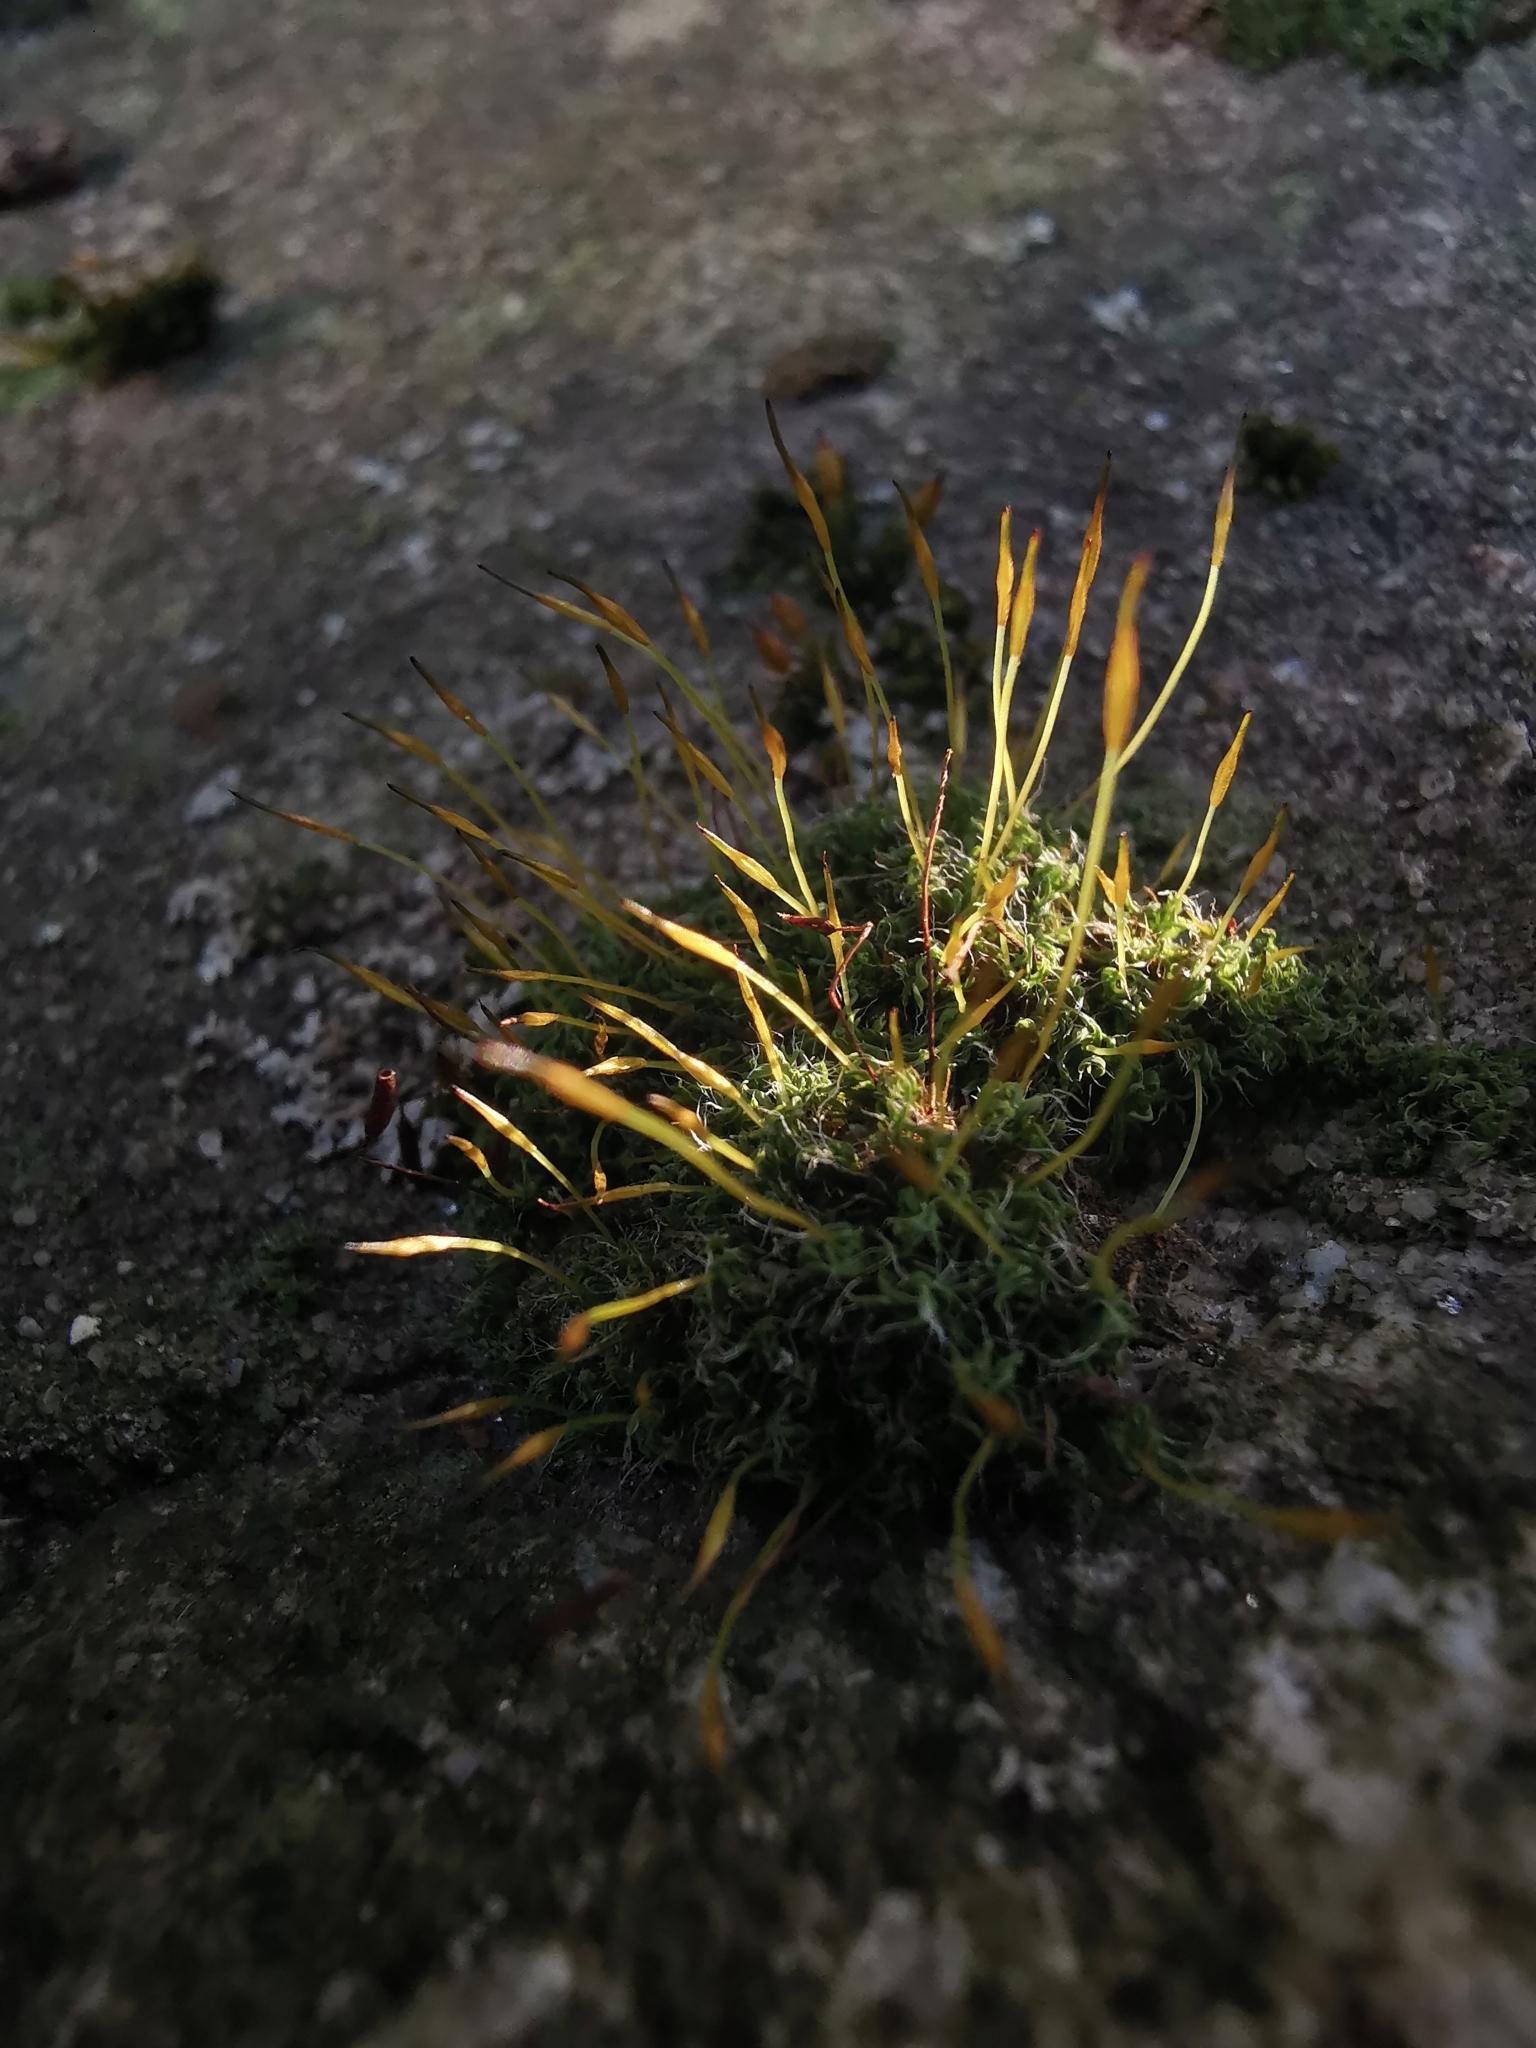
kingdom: Plantae
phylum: Bryophyta
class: Bryopsida
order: Pottiales
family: Pottiaceae
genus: Tortula
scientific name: Tortula muralis
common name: Wall screw-moss
